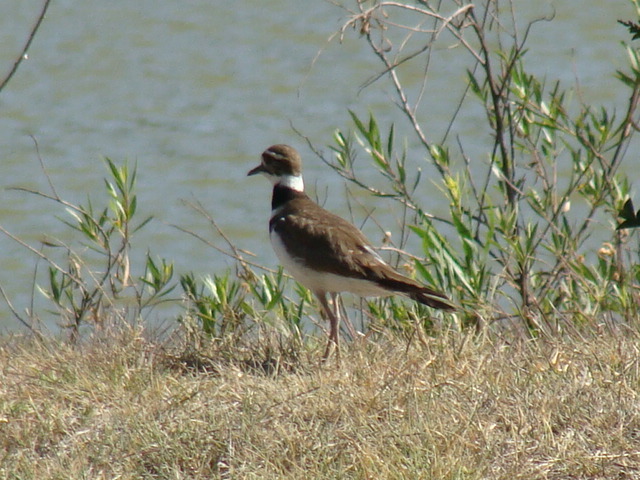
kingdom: Animalia
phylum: Chordata
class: Aves
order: Charadriiformes
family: Charadriidae
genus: Charadrius
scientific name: Charadrius vociferus
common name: Killdeer
